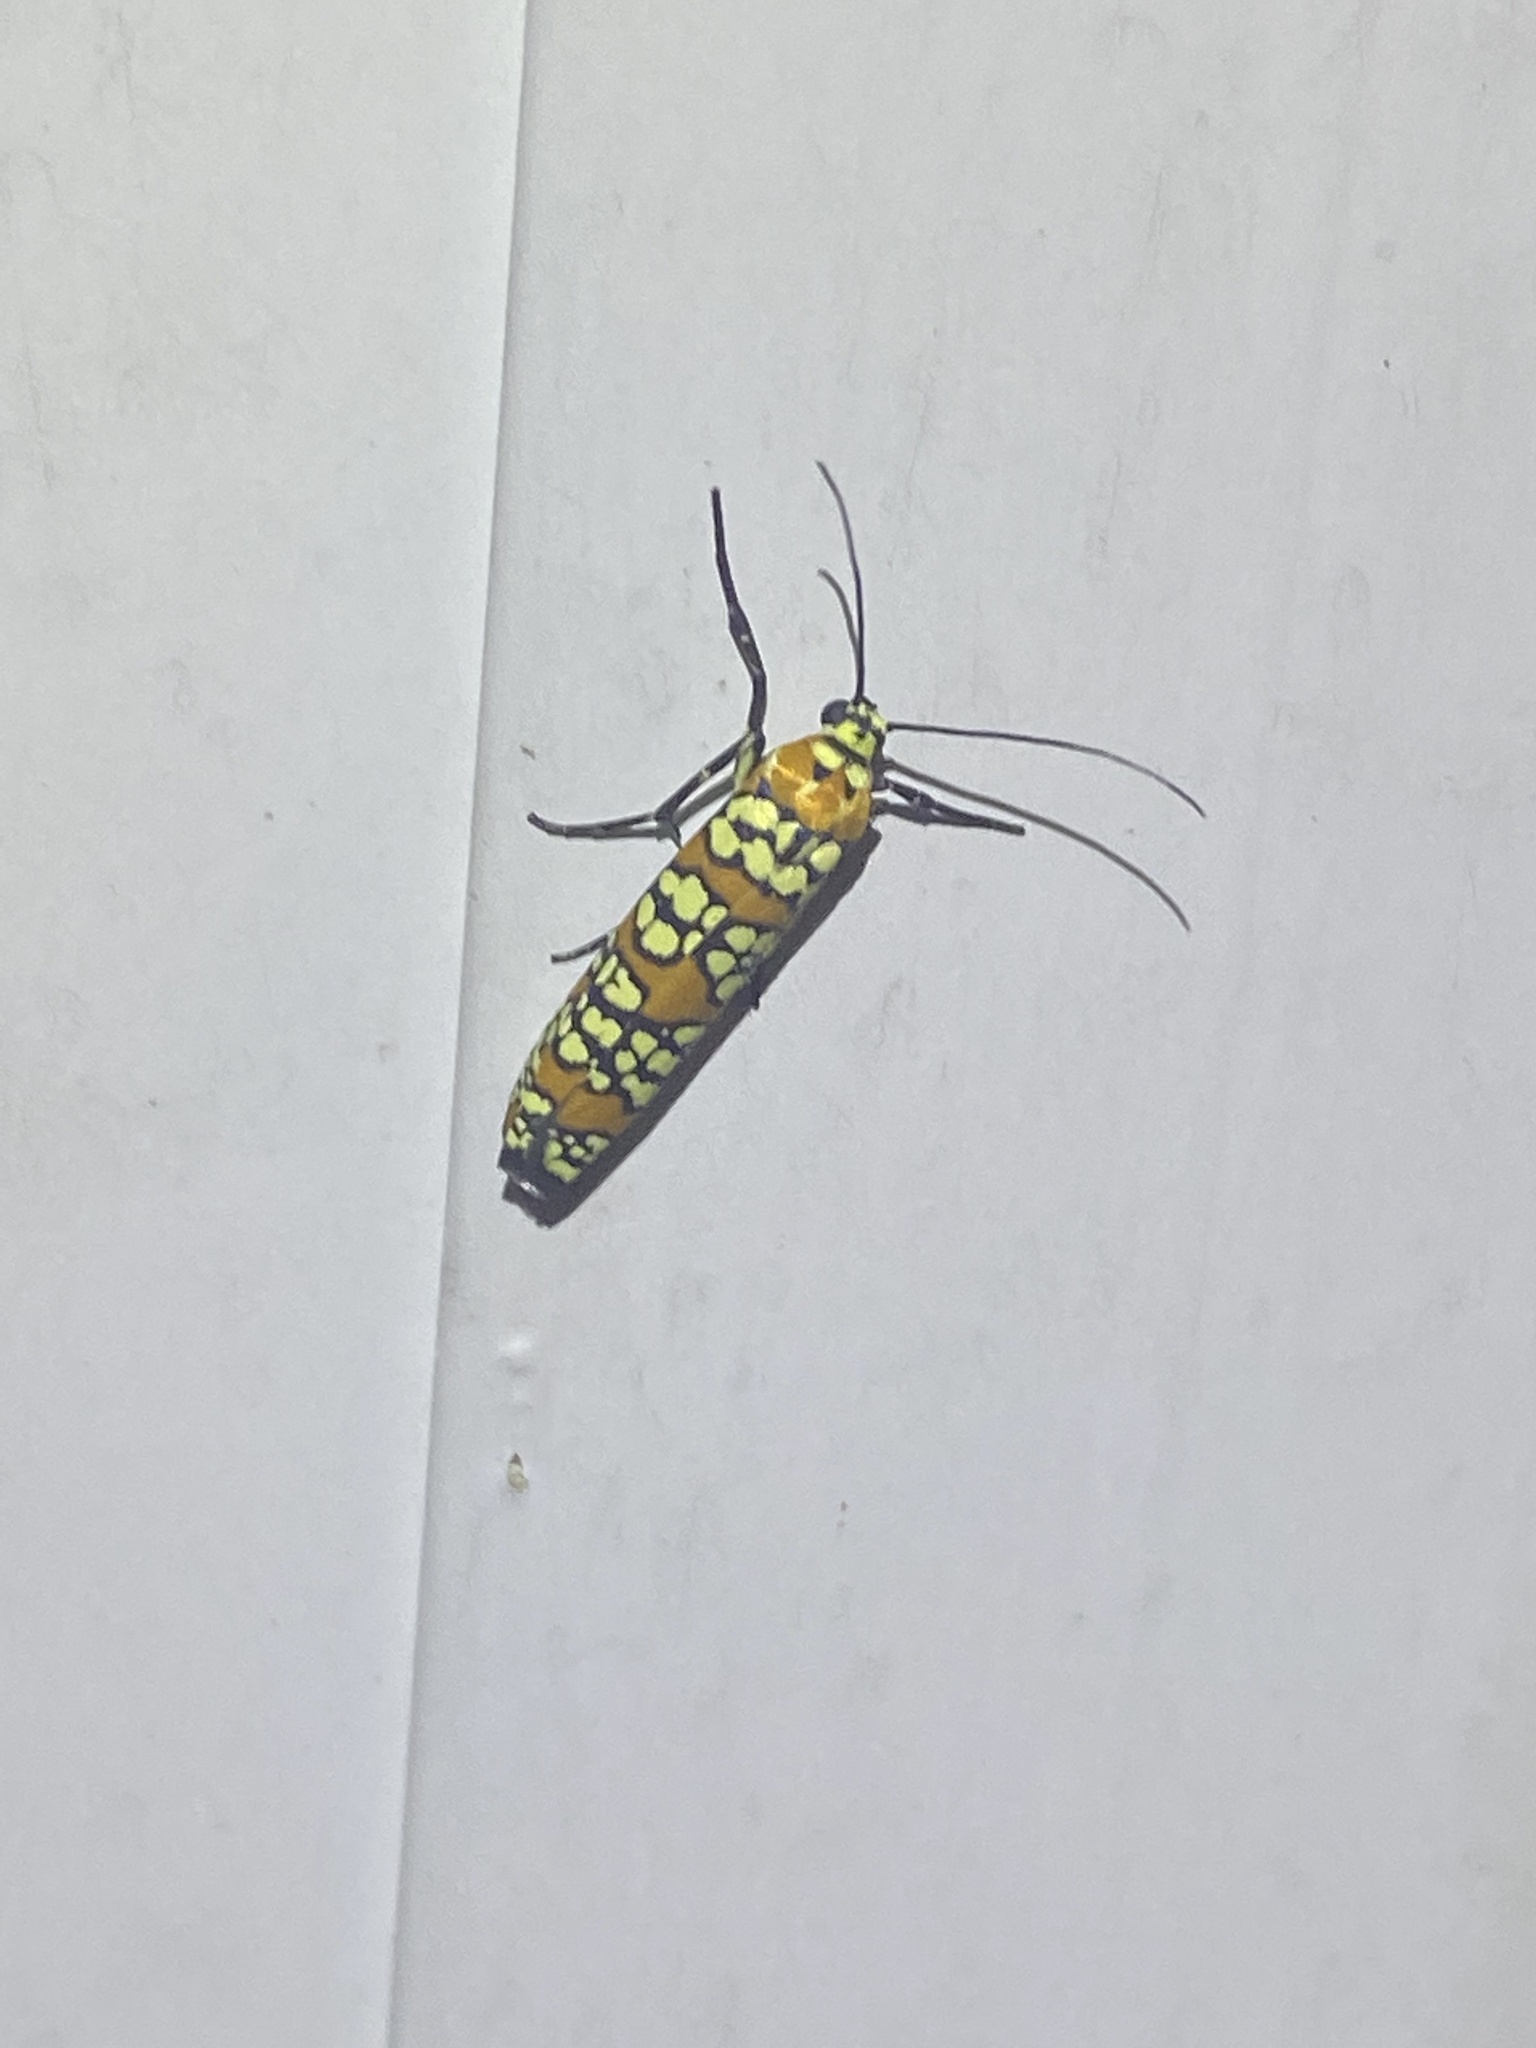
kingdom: Animalia
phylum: Arthropoda
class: Insecta
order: Lepidoptera
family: Attevidae
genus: Atteva
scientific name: Atteva punctella
